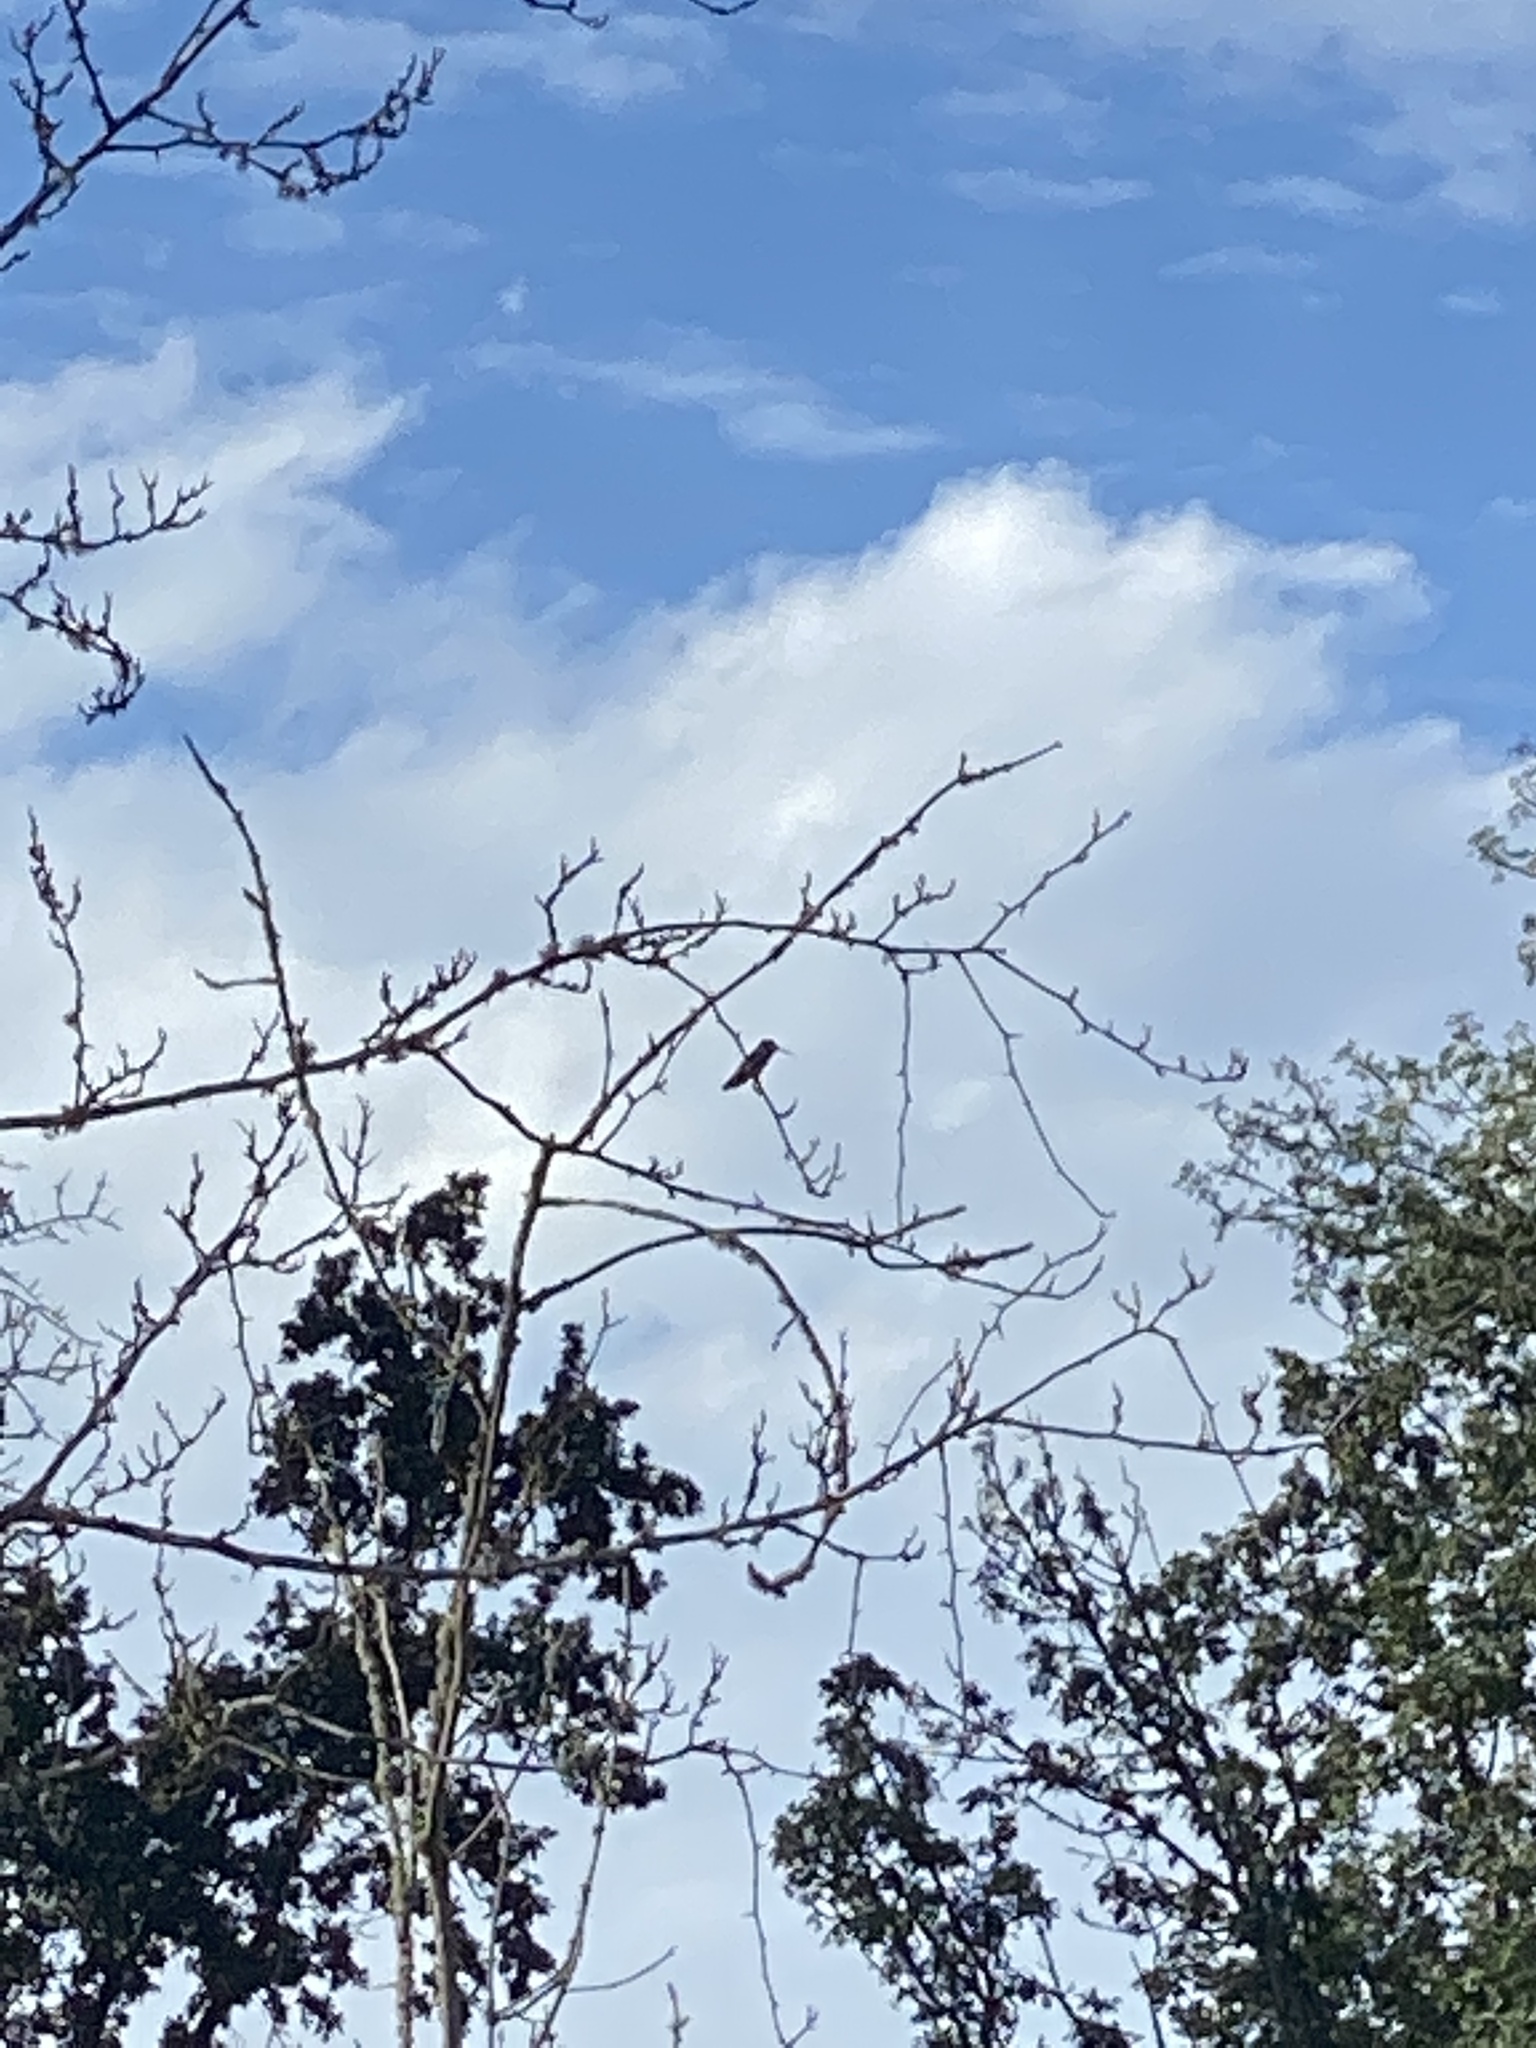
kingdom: Animalia
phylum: Chordata
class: Aves
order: Apodiformes
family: Trochilidae
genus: Calypte
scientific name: Calypte anna
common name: Anna's hummingbird
